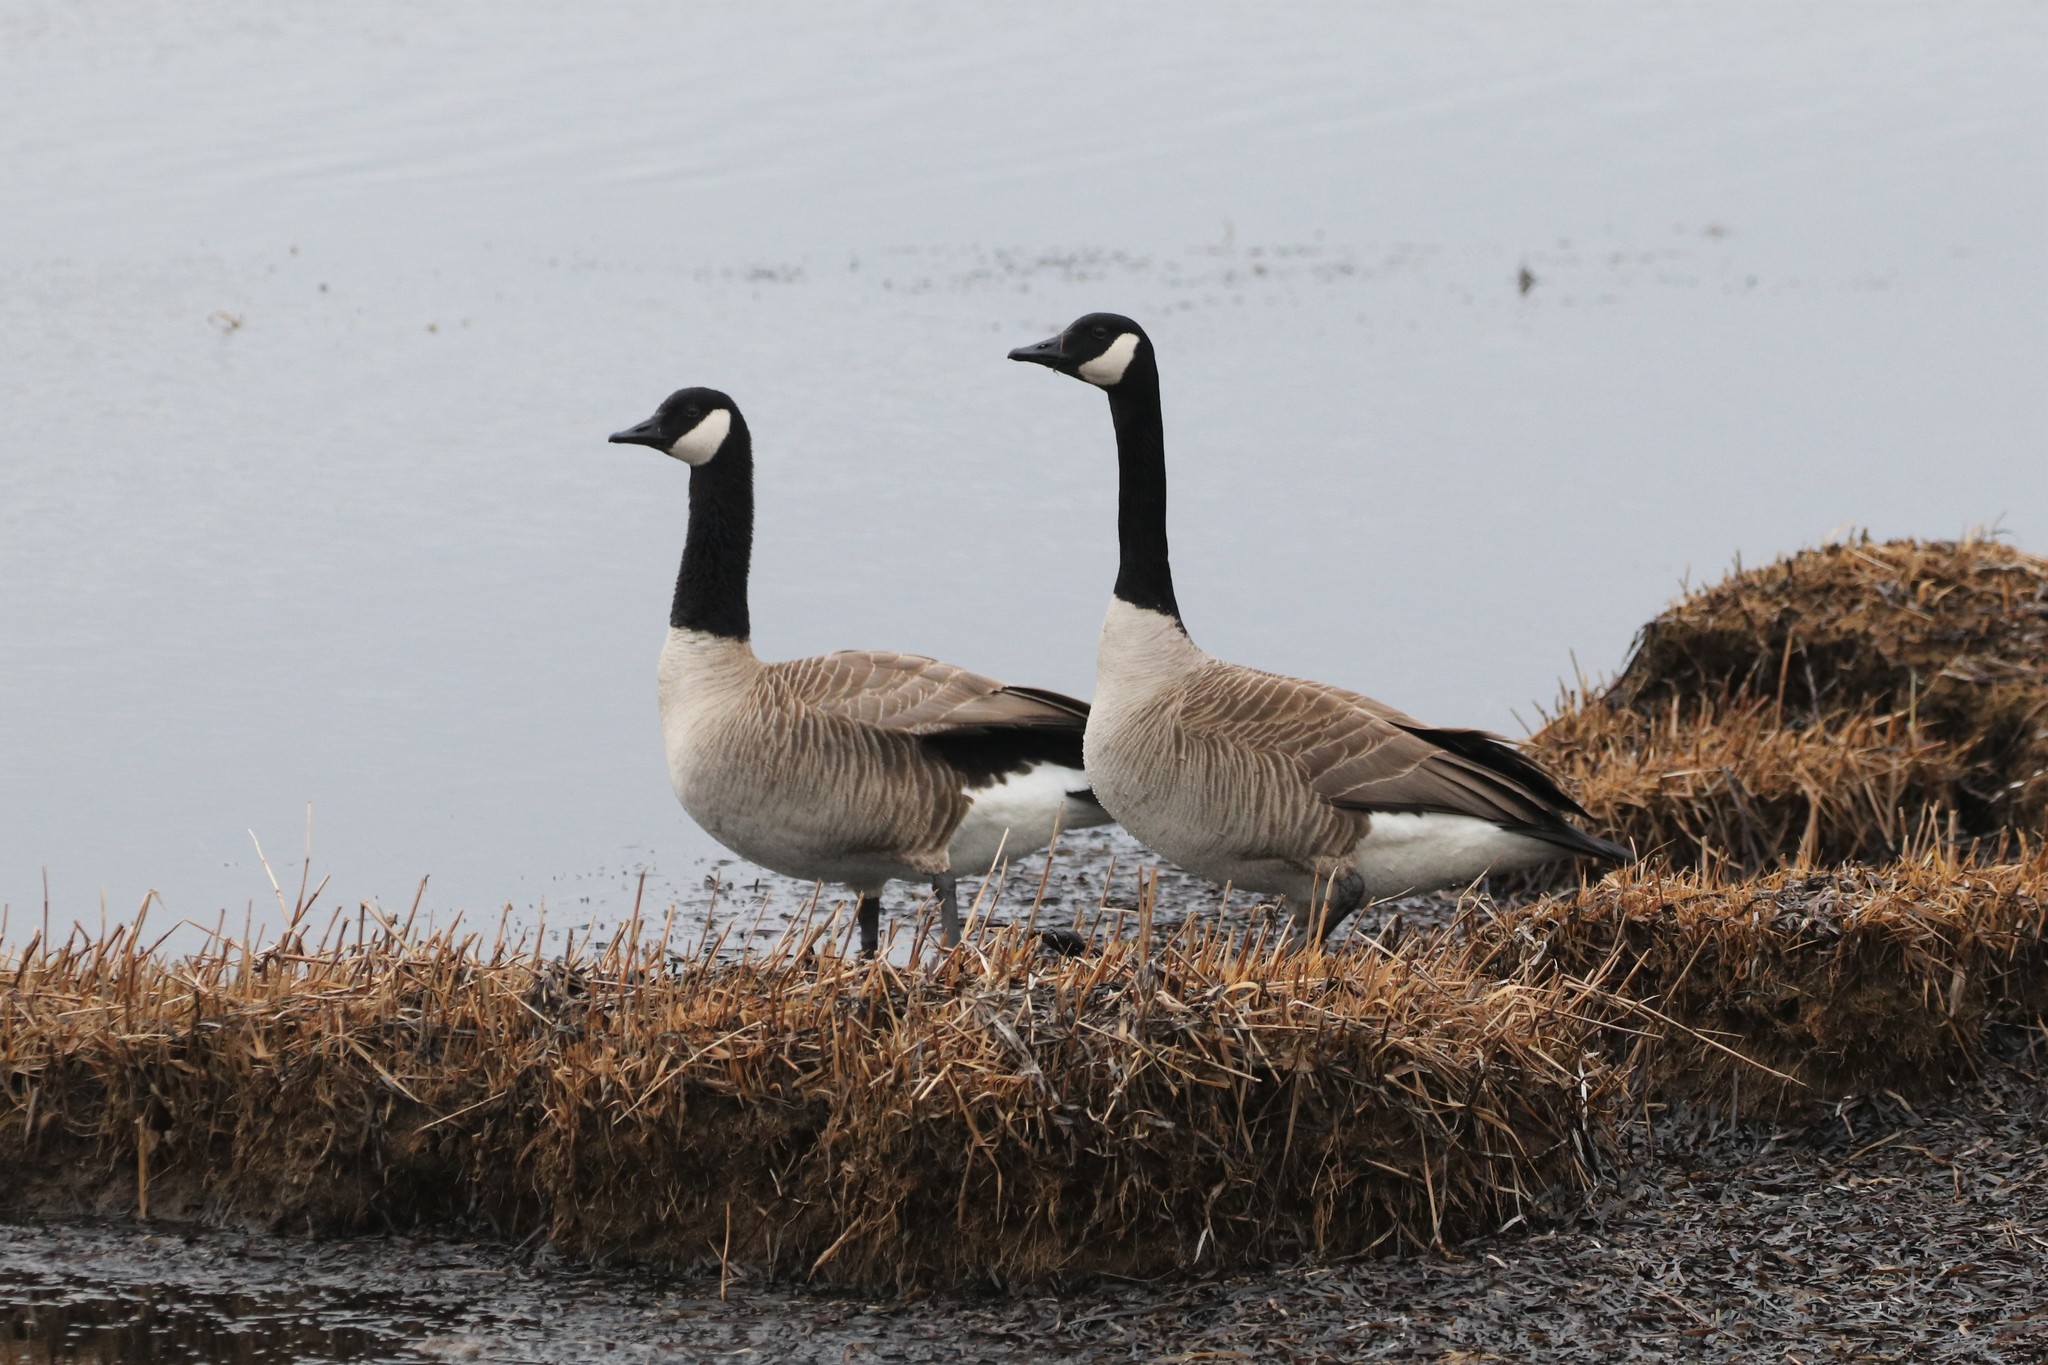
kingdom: Animalia
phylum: Chordata
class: Aves
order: Anseriformes
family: Anatidae
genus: Branta
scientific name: Branta canadensis
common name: Canada goose
